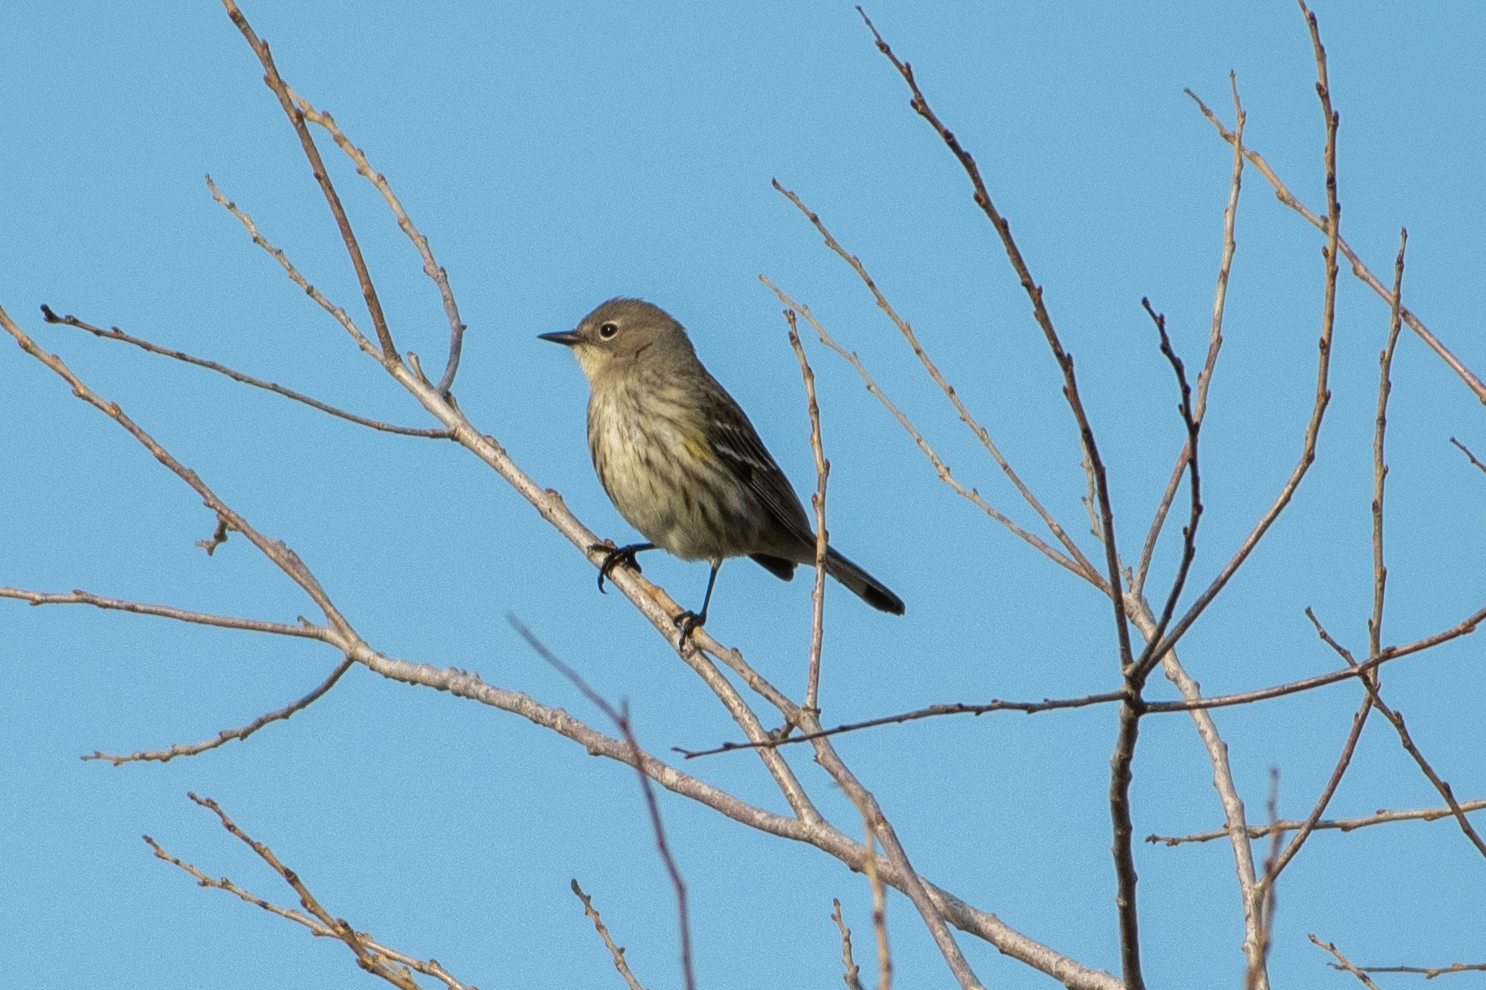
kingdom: Animalia
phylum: Chordata
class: Aves
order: Passeriformes
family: Parulidae
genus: Setophaga
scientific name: Setophaga coronata
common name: Myrtle warbler
